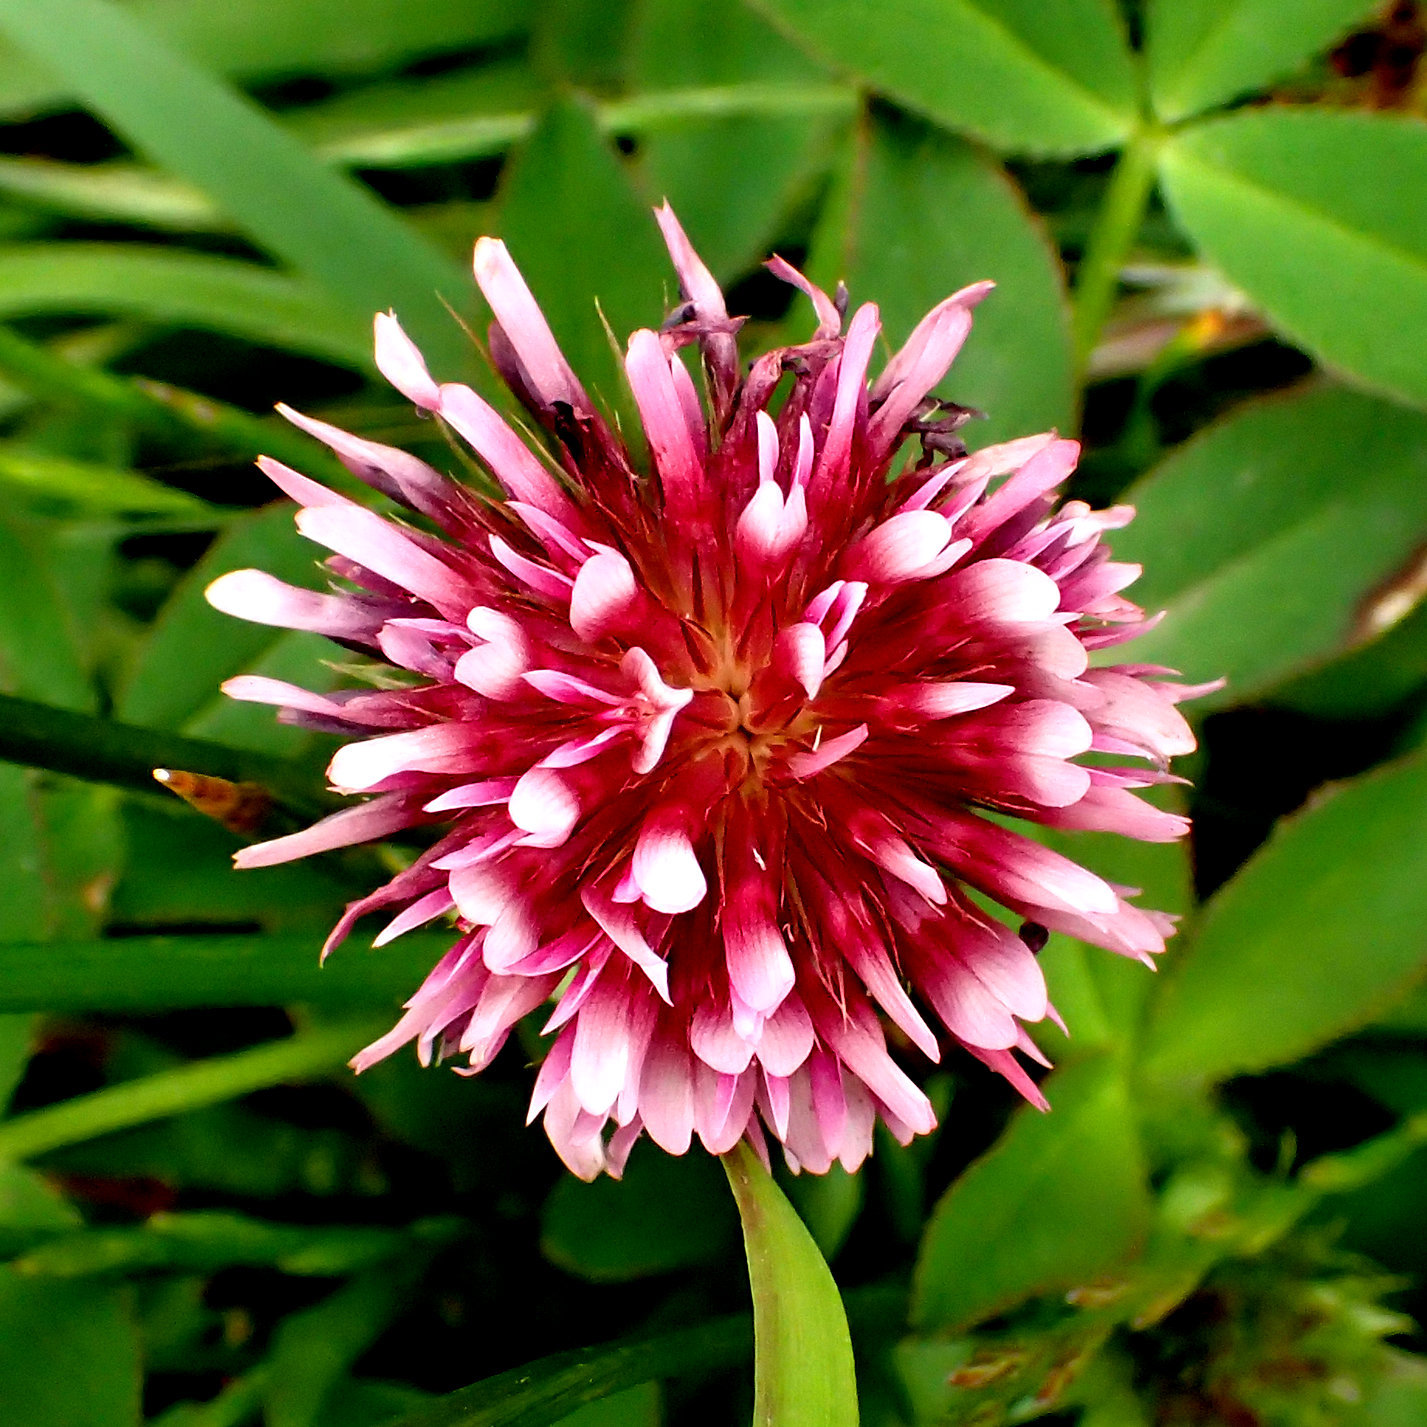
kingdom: Plantae
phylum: Tracheophyta
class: Magnoliopsida
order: Fabales
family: Fabaceae
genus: Trifolium
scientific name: Trifolium wormskioldii
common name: Springbank clover
